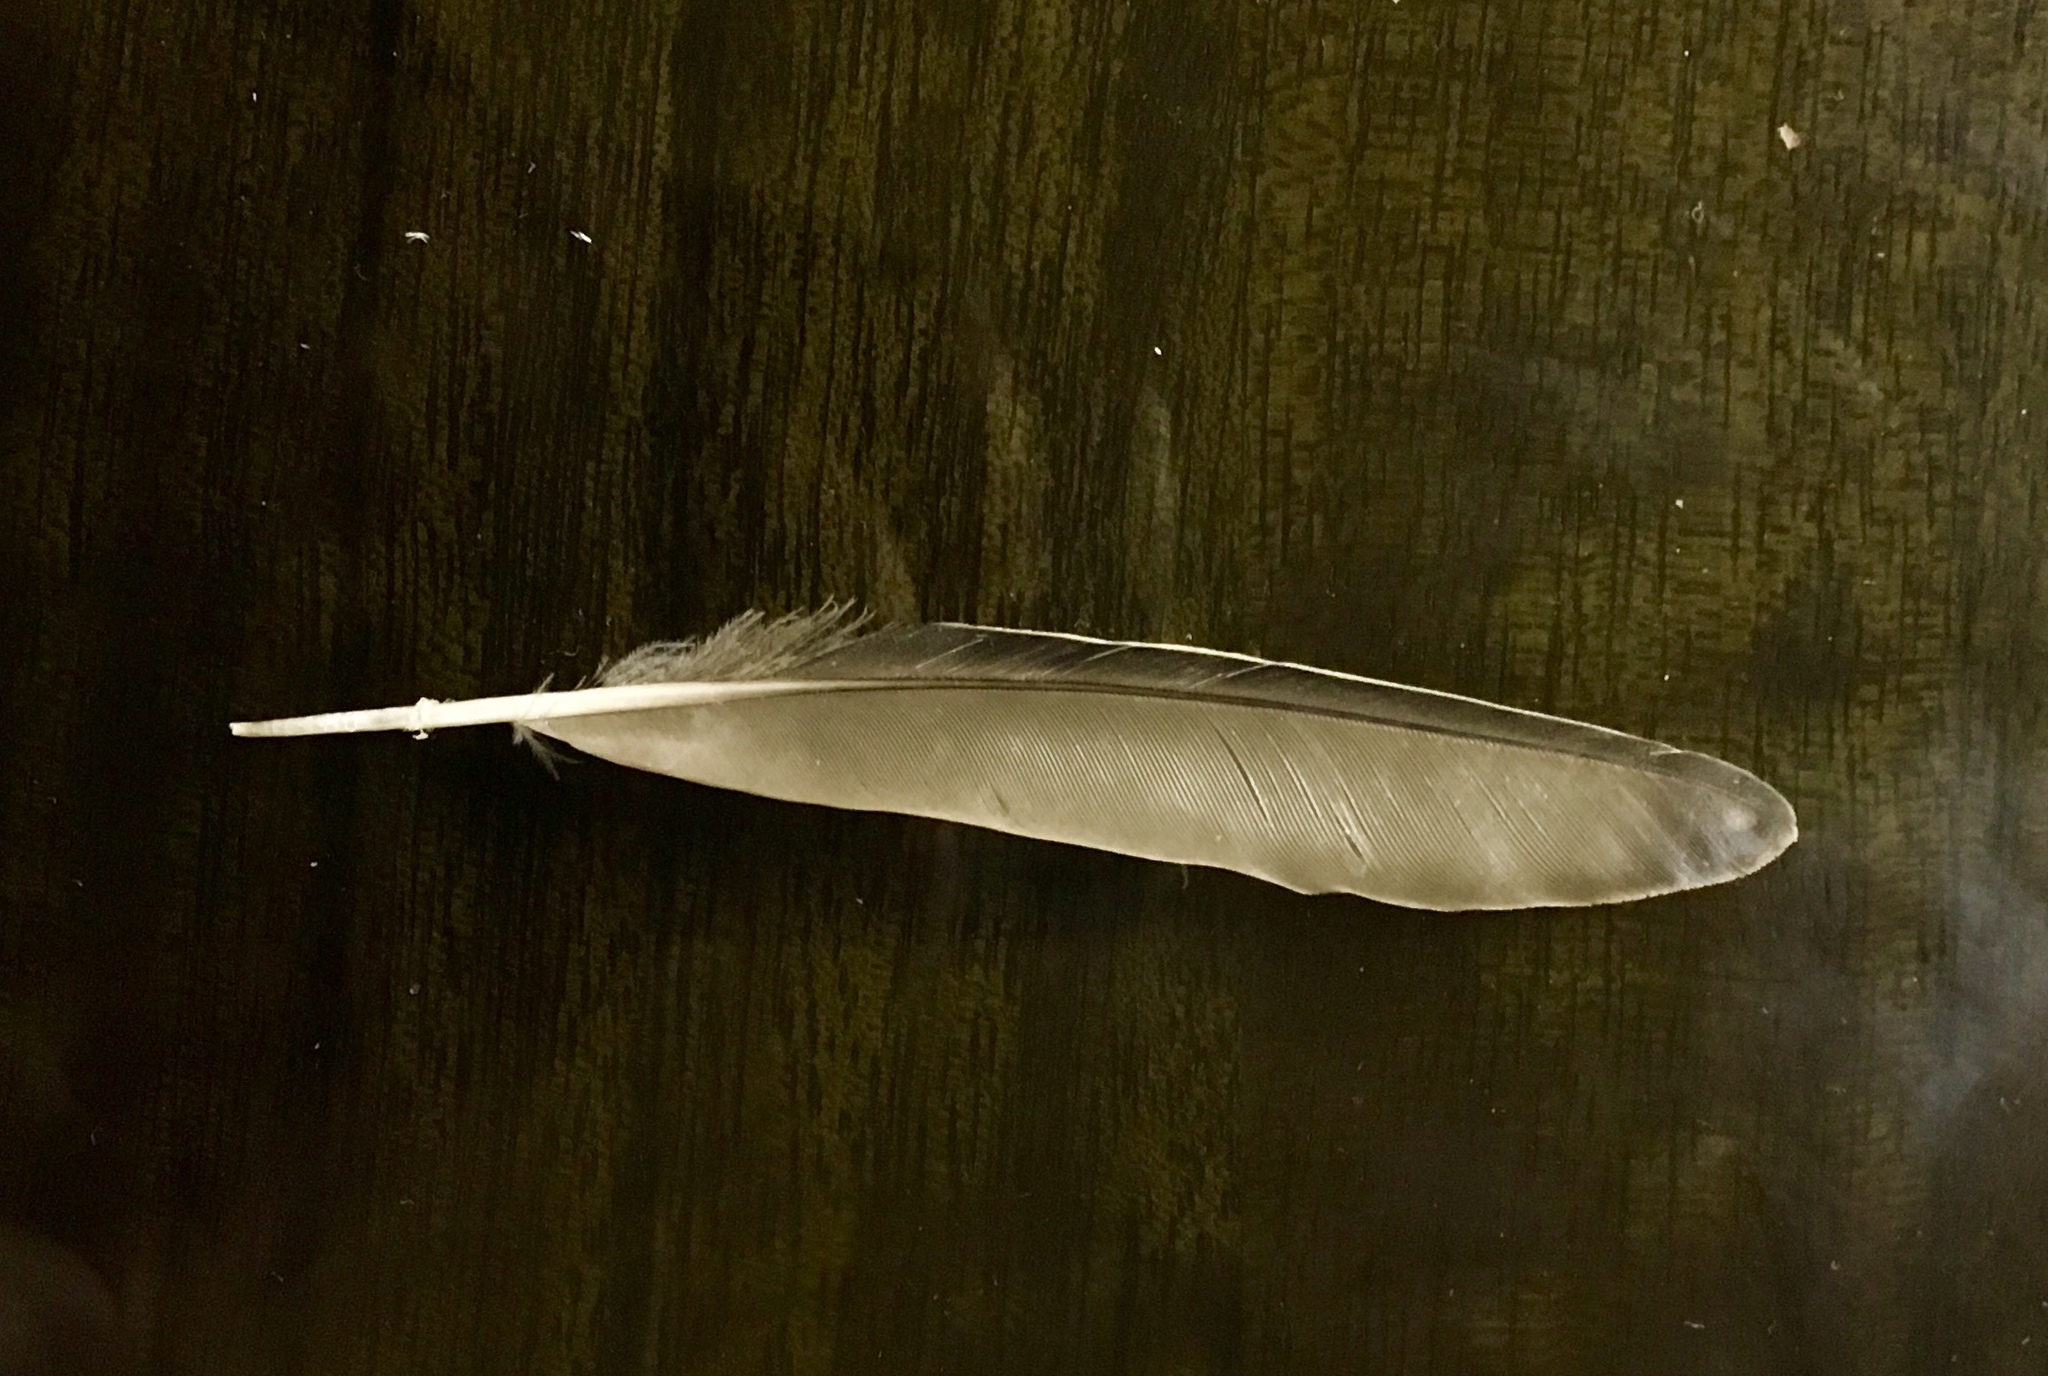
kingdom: Animalia
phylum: Chordata
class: Aves
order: Passeriformes
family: Sturnidae
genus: Sturnus
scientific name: Sturnus vulgaris
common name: Common starling
